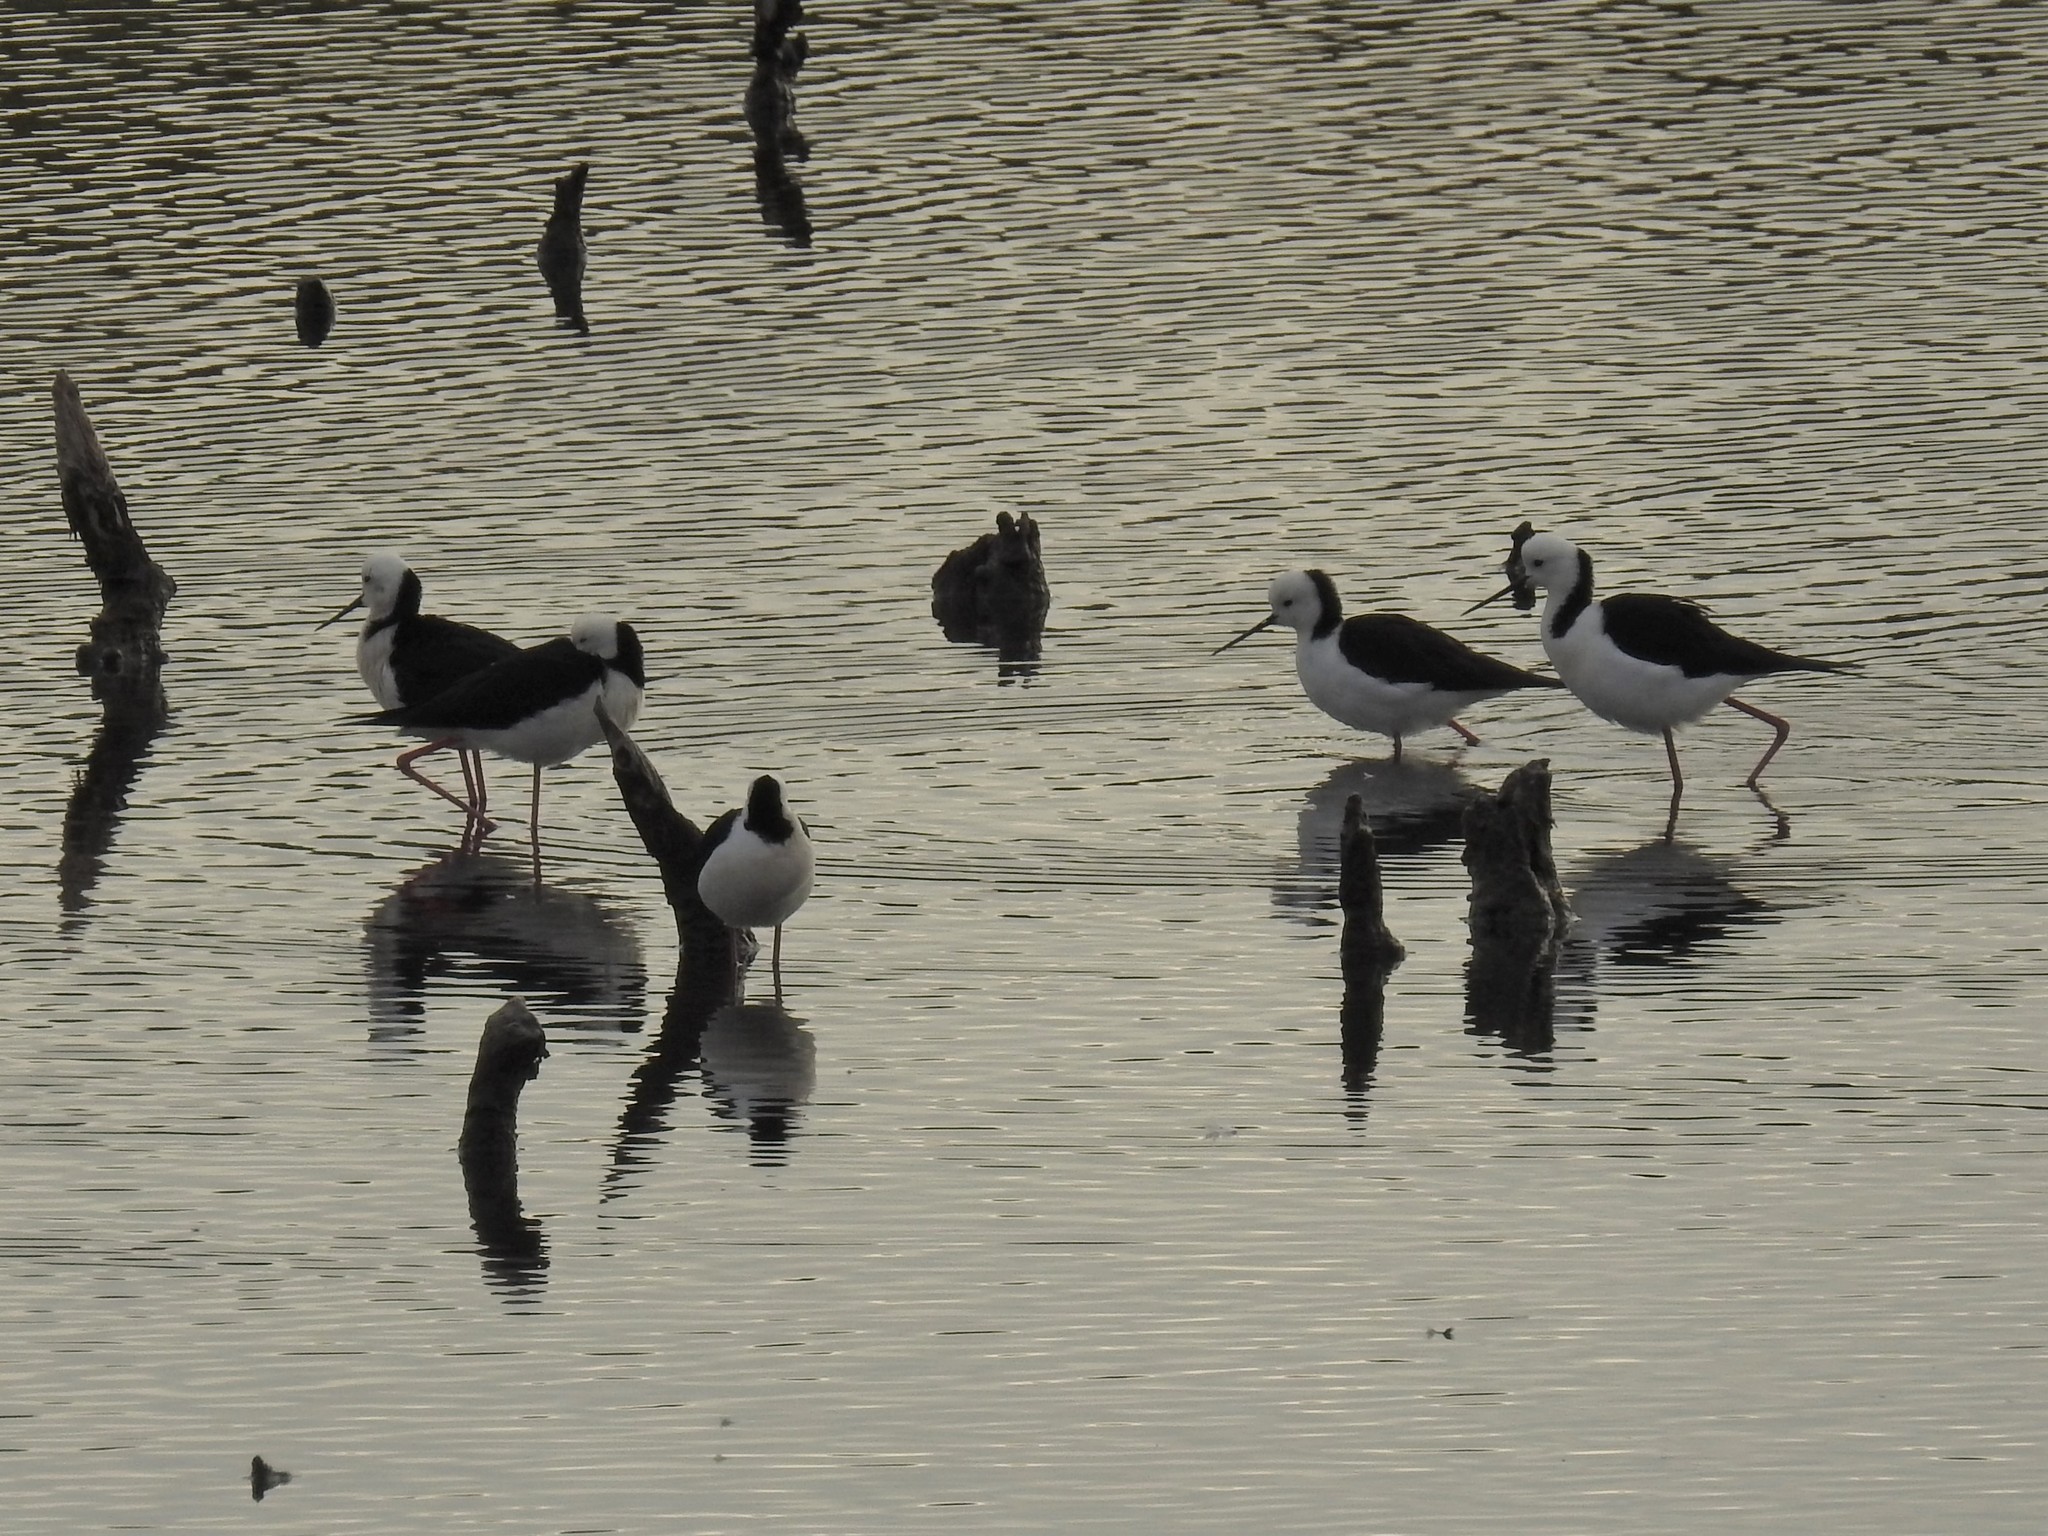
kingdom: Animalia
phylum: Chordata
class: Aves
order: Charadriiformes
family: Recurvirostridae
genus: Himantopus
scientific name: Himantopus leucocephalus
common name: White-headed stilt
